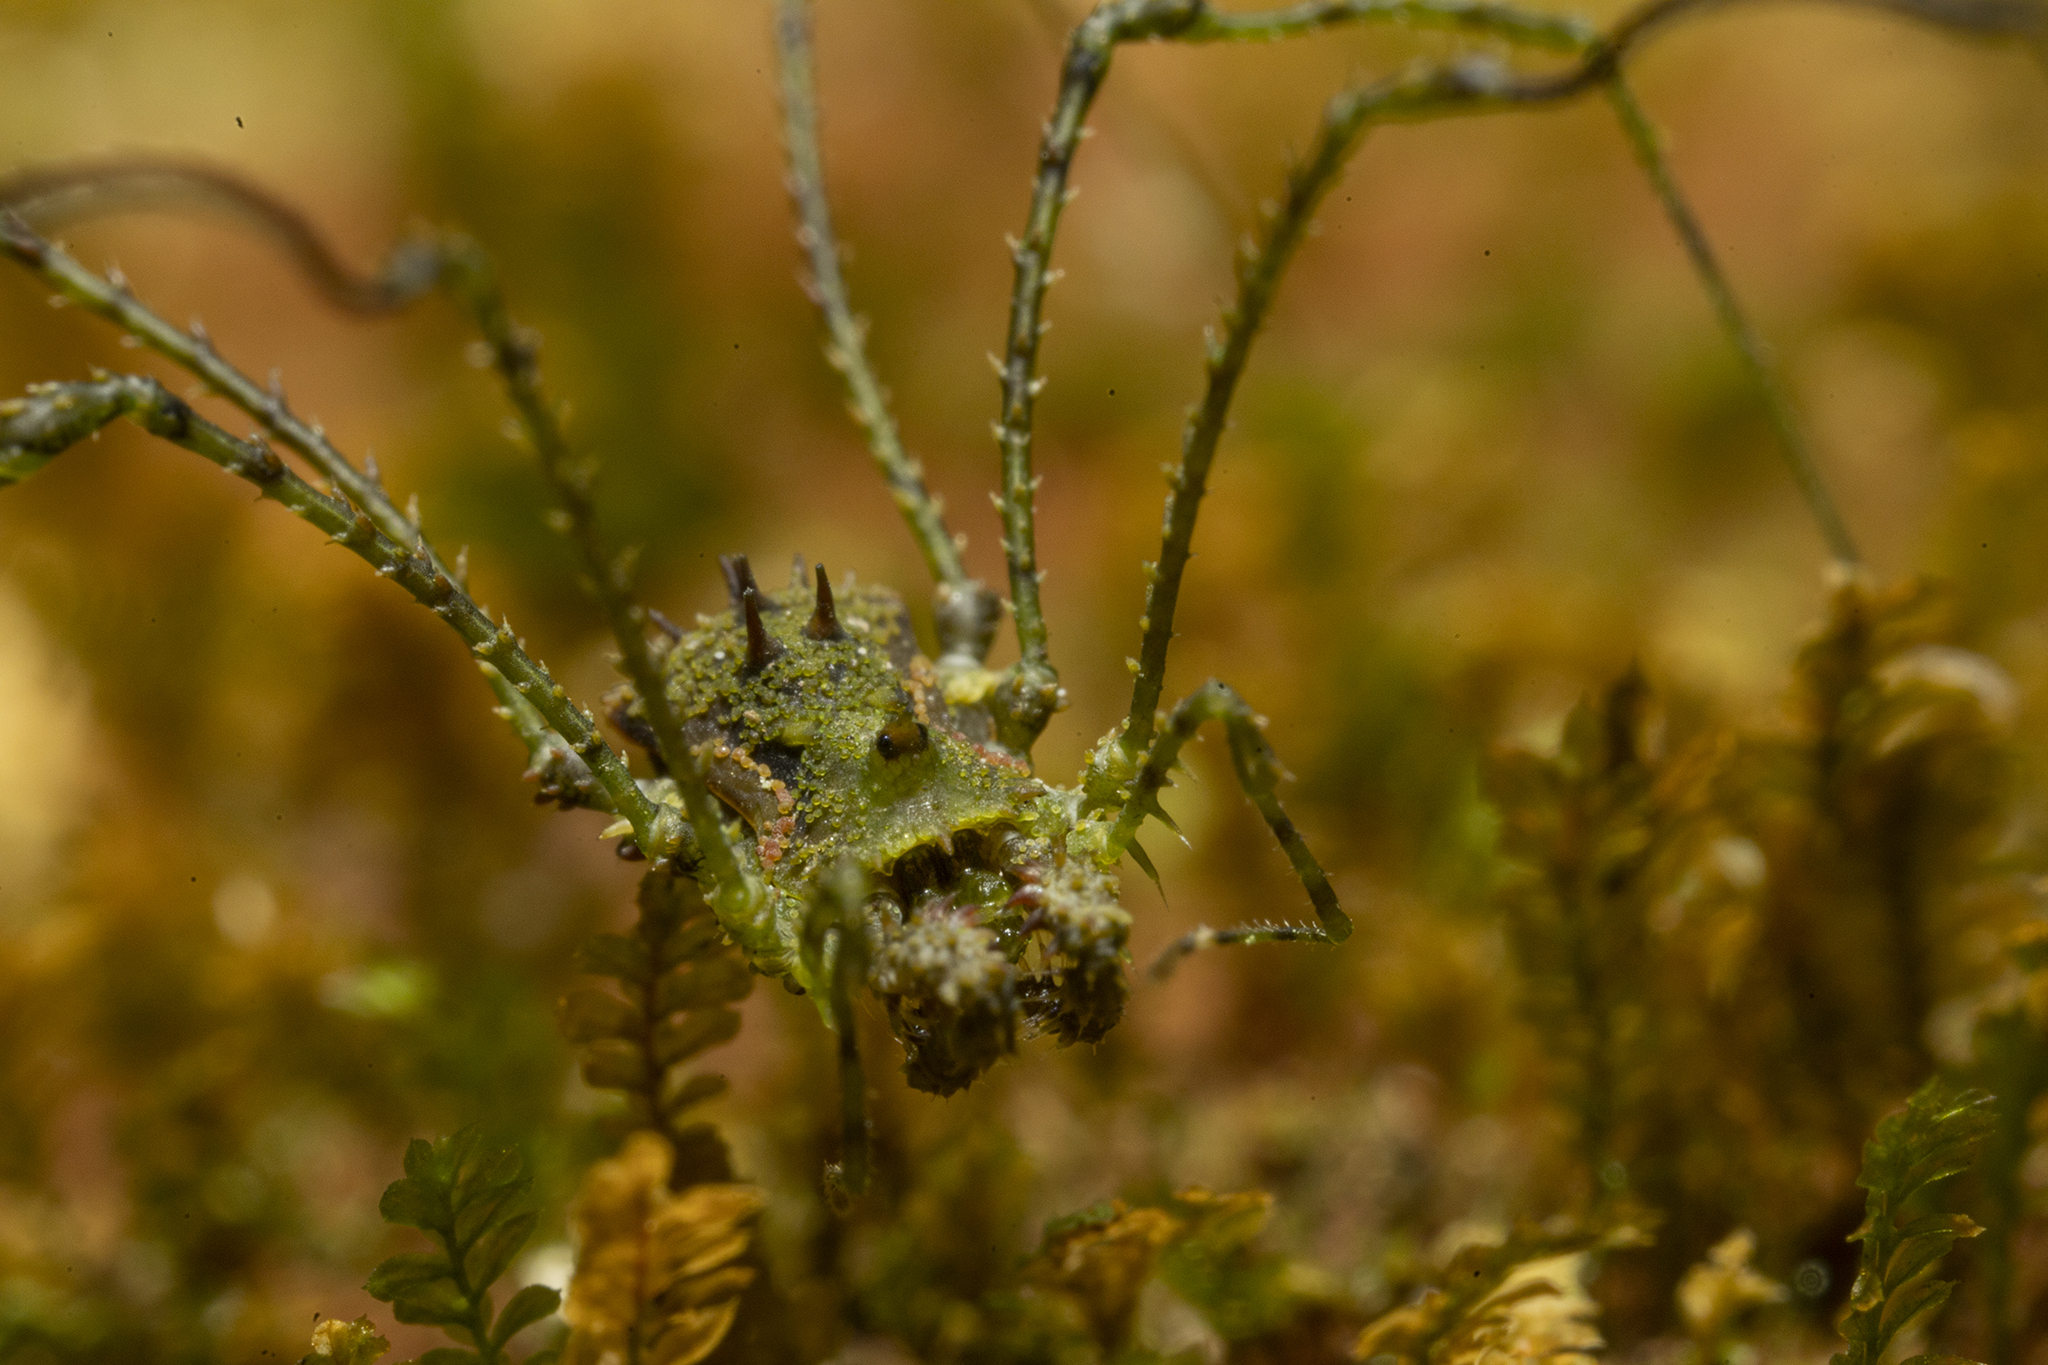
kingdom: Animalia
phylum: Arthropoda
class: Arachnida
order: Opiliones
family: Triaenonychidae
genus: Algidia
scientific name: Algidia viridata
